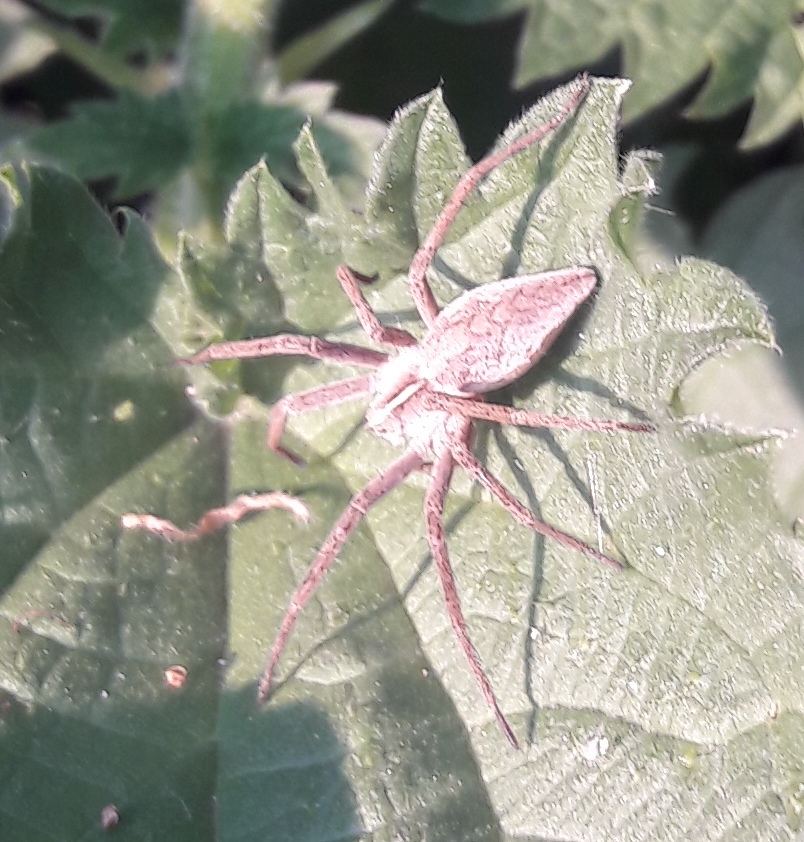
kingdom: Animalia
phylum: Arthropoda
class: Arachnida
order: Araneae
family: Pisauridae
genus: Pisaura
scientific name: Pisaura mirabilis
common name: Tent spider
